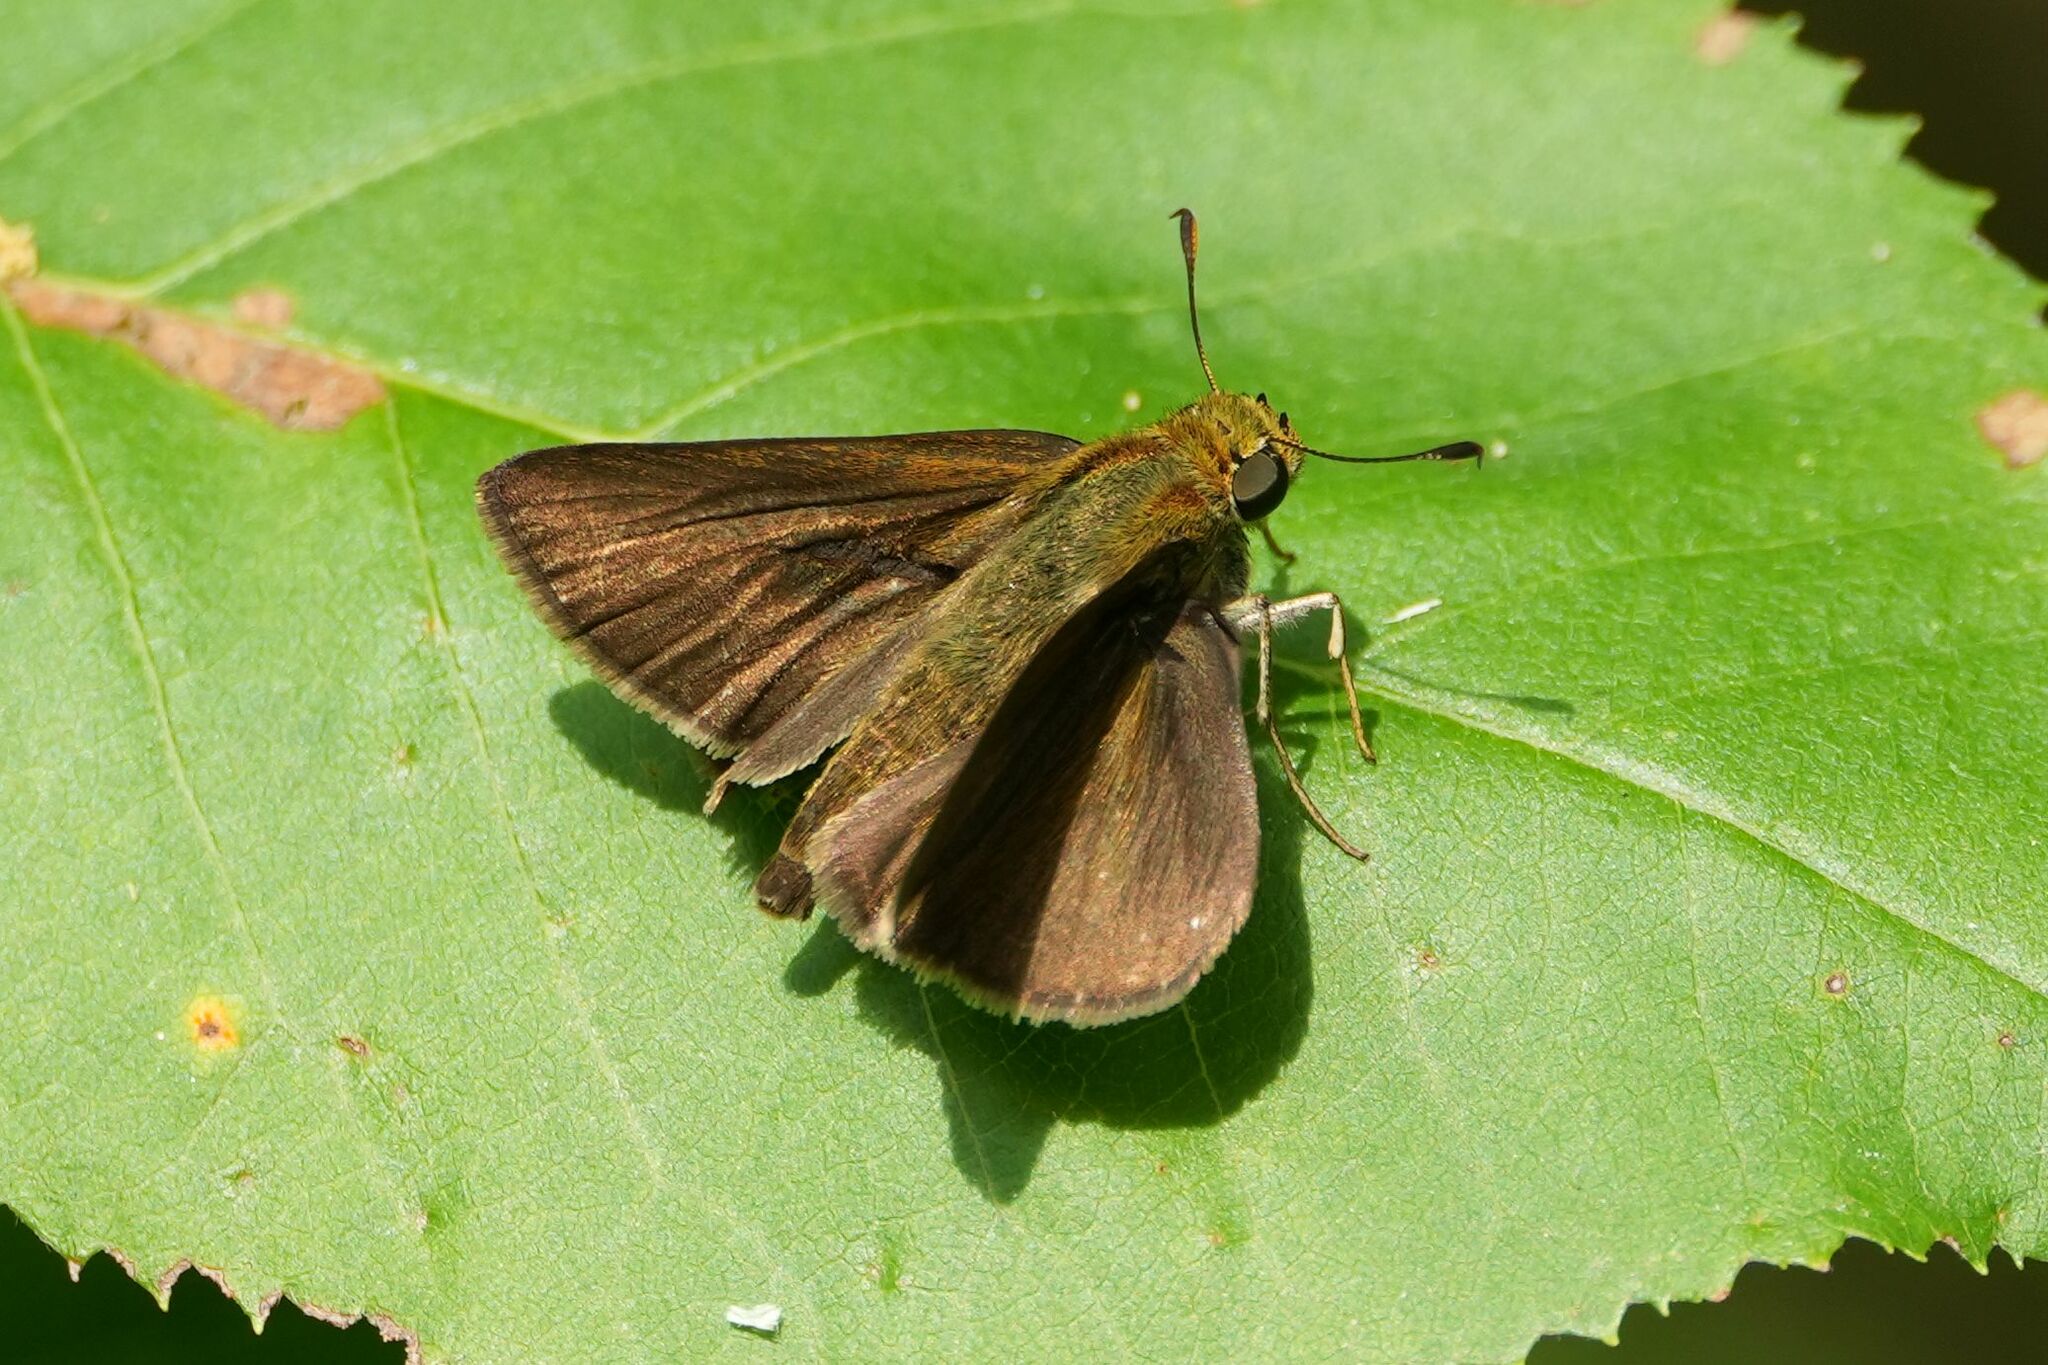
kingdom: Animalia
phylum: Arthropoda
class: Insecta
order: Lepidoptera
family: Hesperiidae
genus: Euphyes
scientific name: Euphyes vestris
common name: Dun skipper
